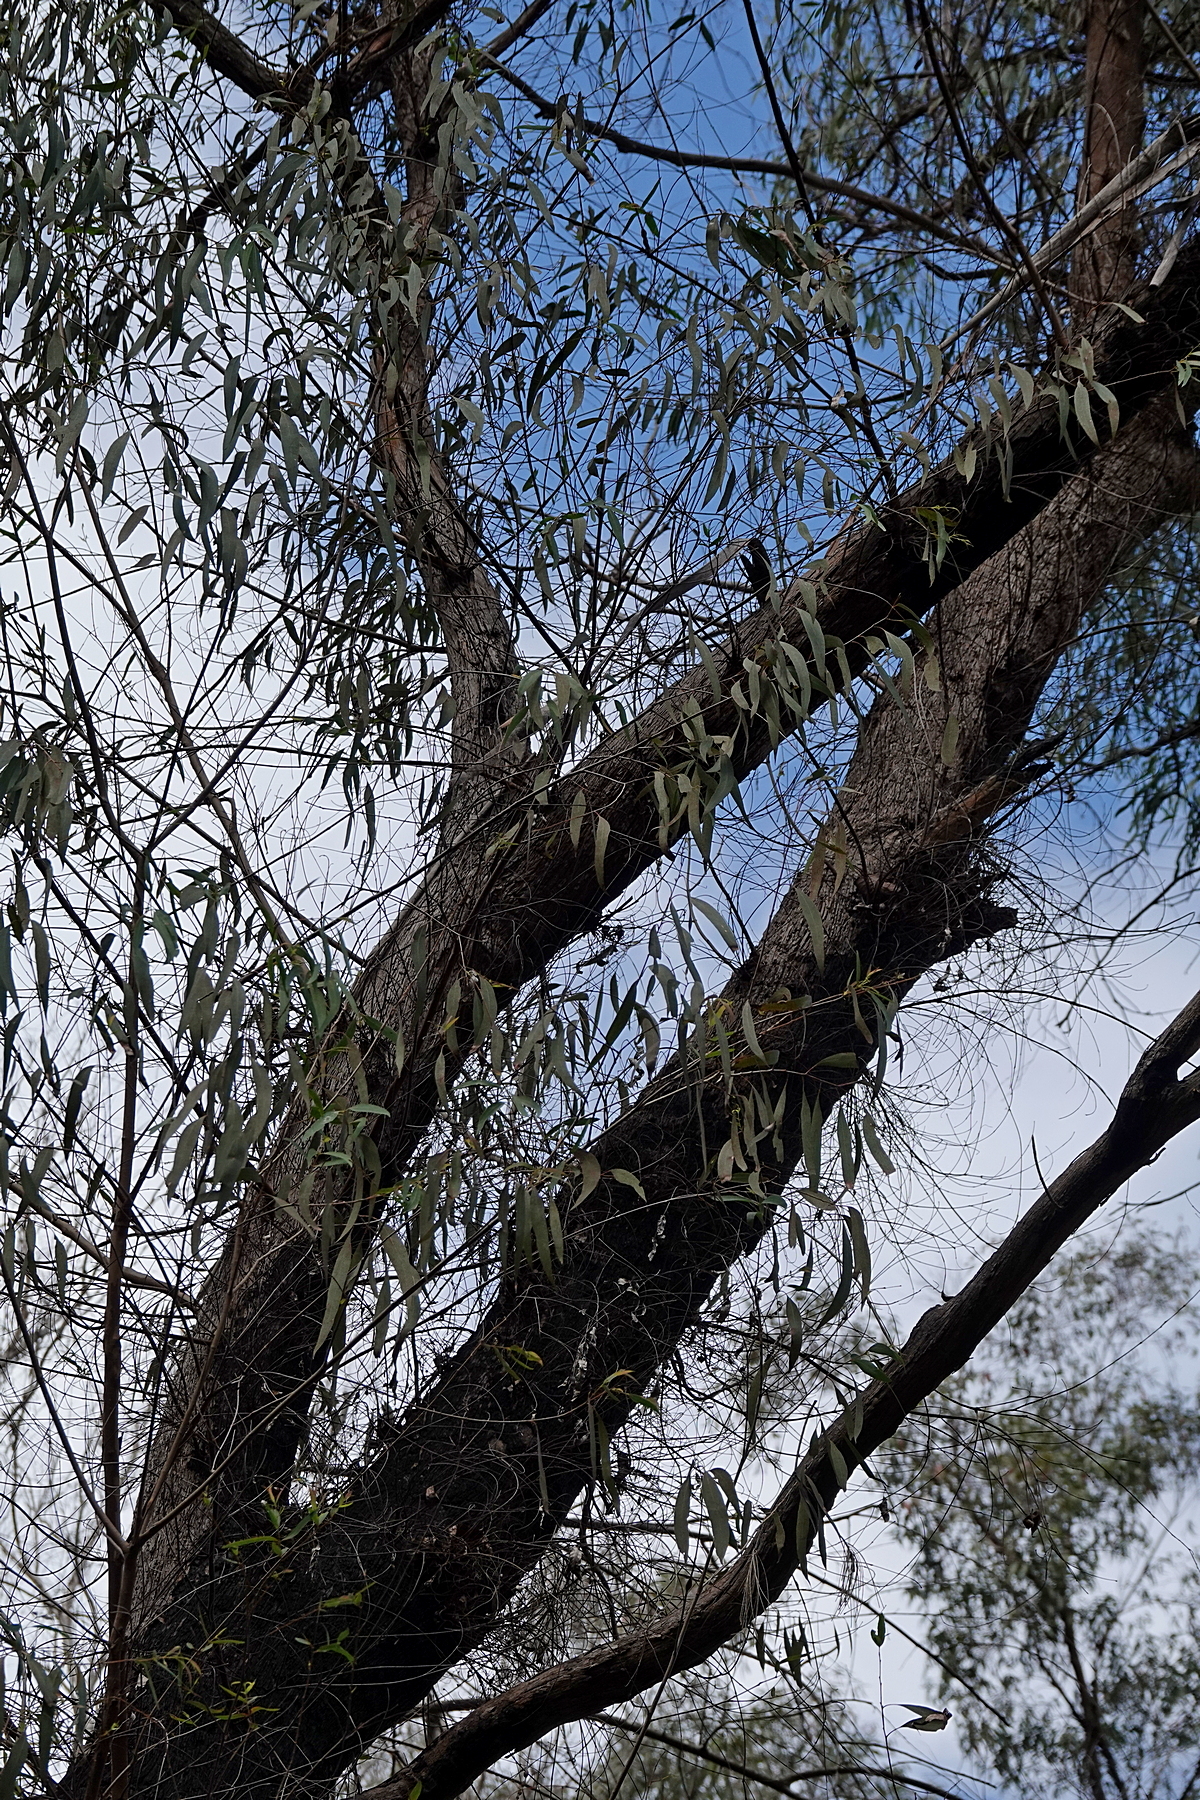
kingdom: Plantae
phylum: Tracheophyta
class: Magnoliopsida
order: Myrtales
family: Myrtaceae
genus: Eucalyptus
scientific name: Eucalyptus radiata
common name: Narrow-leaved-peppermint
